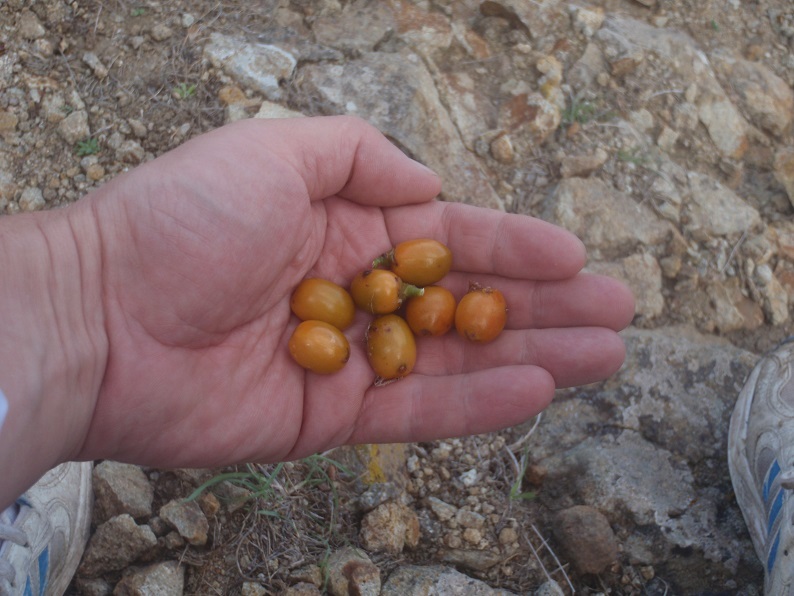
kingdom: Plantae
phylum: Tracheophyta
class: Liliopsida
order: Arecales
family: Arecaceae
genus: Chamaerops
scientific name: Chamaerops humilis
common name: Dwarf fan palm
